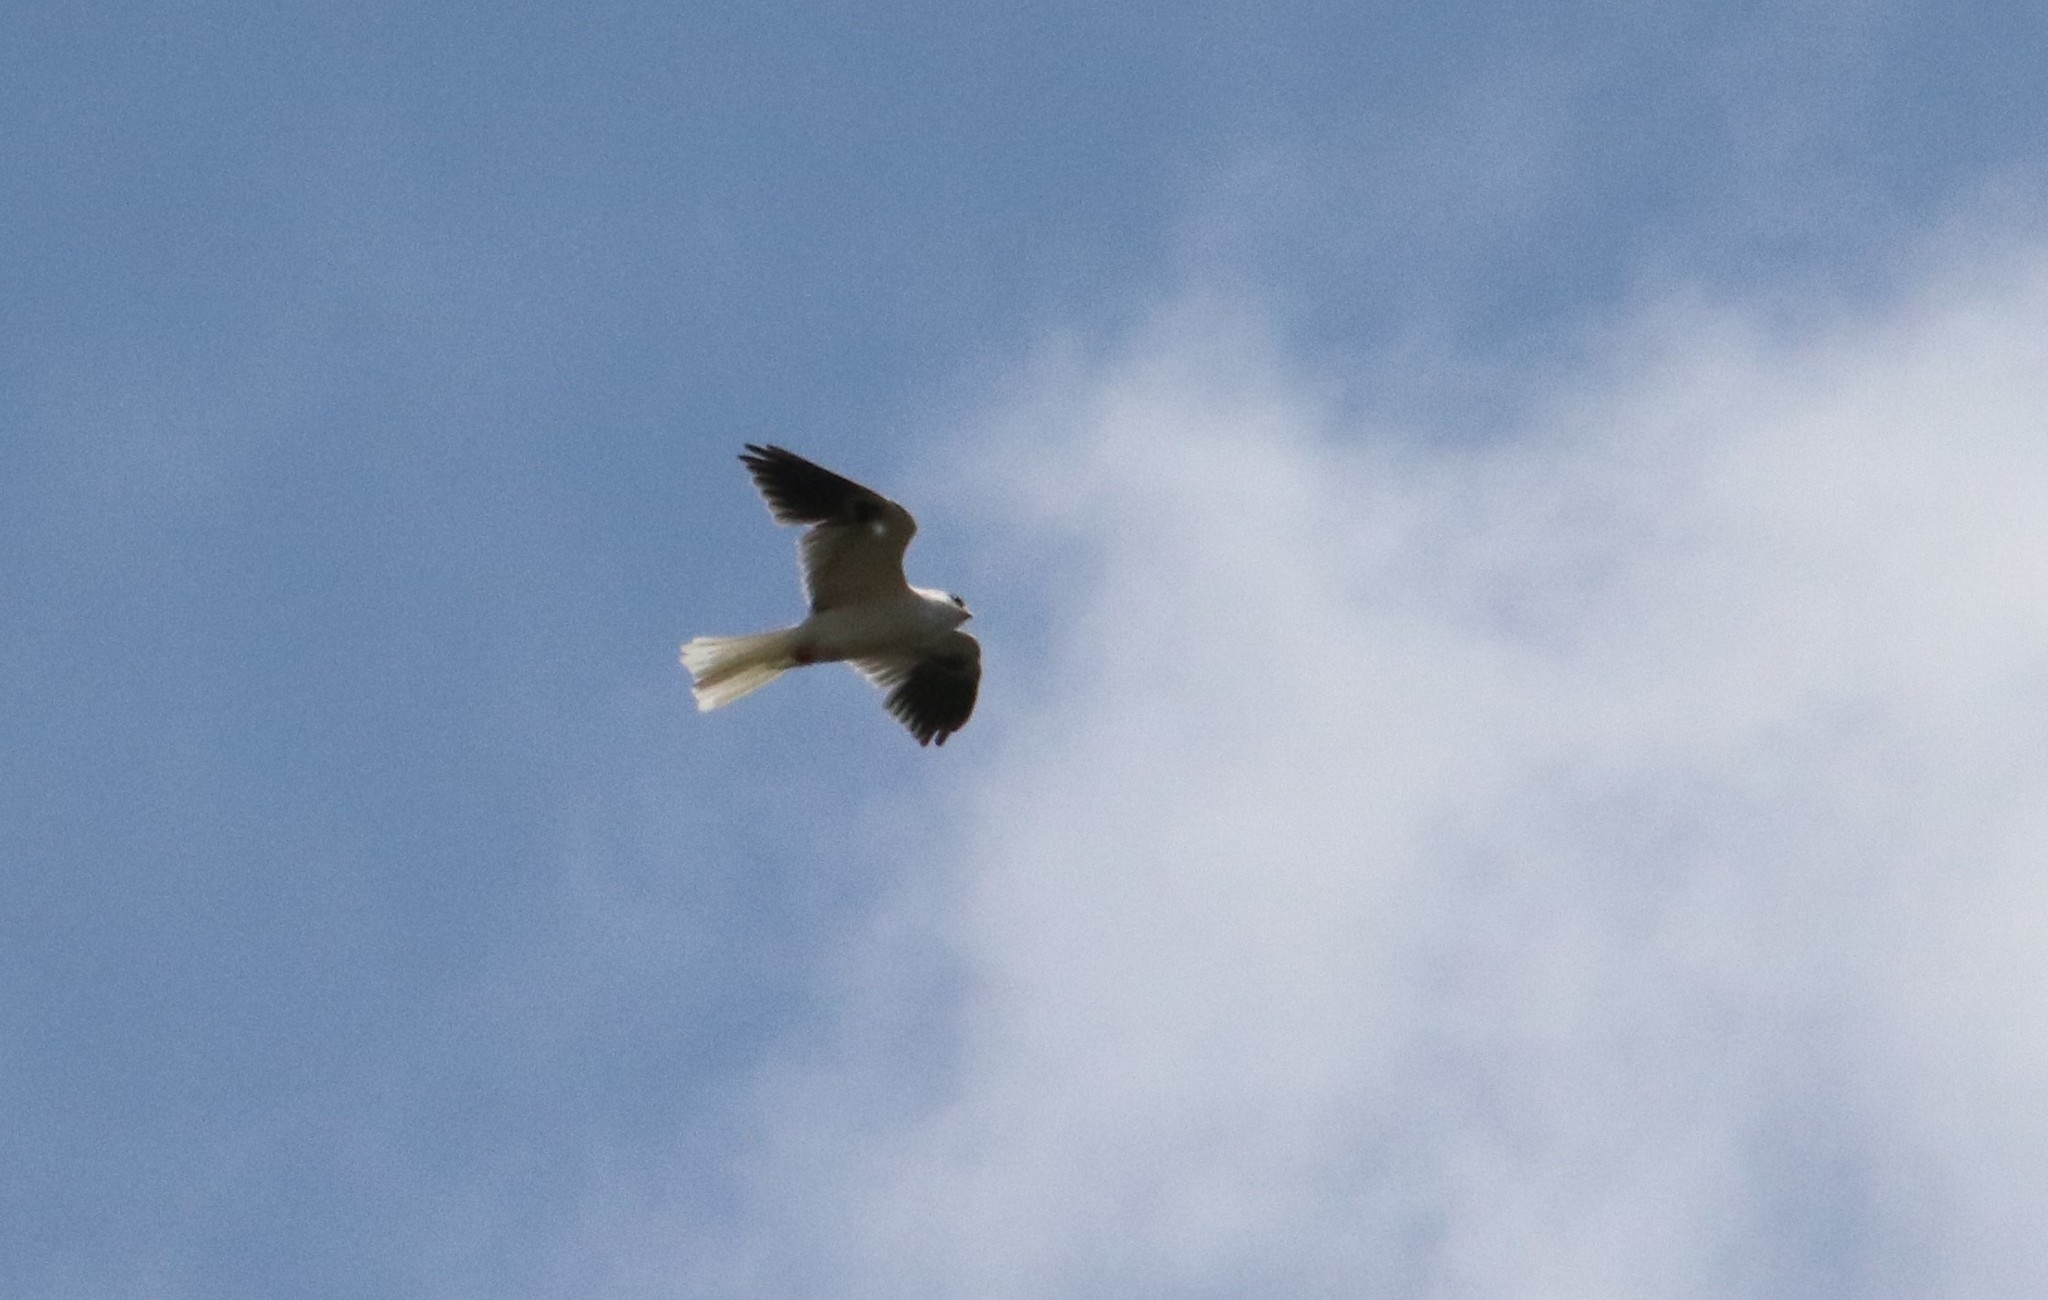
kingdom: Animalia
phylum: Chordata
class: Aves
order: Accipitriformes
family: Accipitridae
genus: Elanus
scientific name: Elanus leucurus
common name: White-tailed kite
